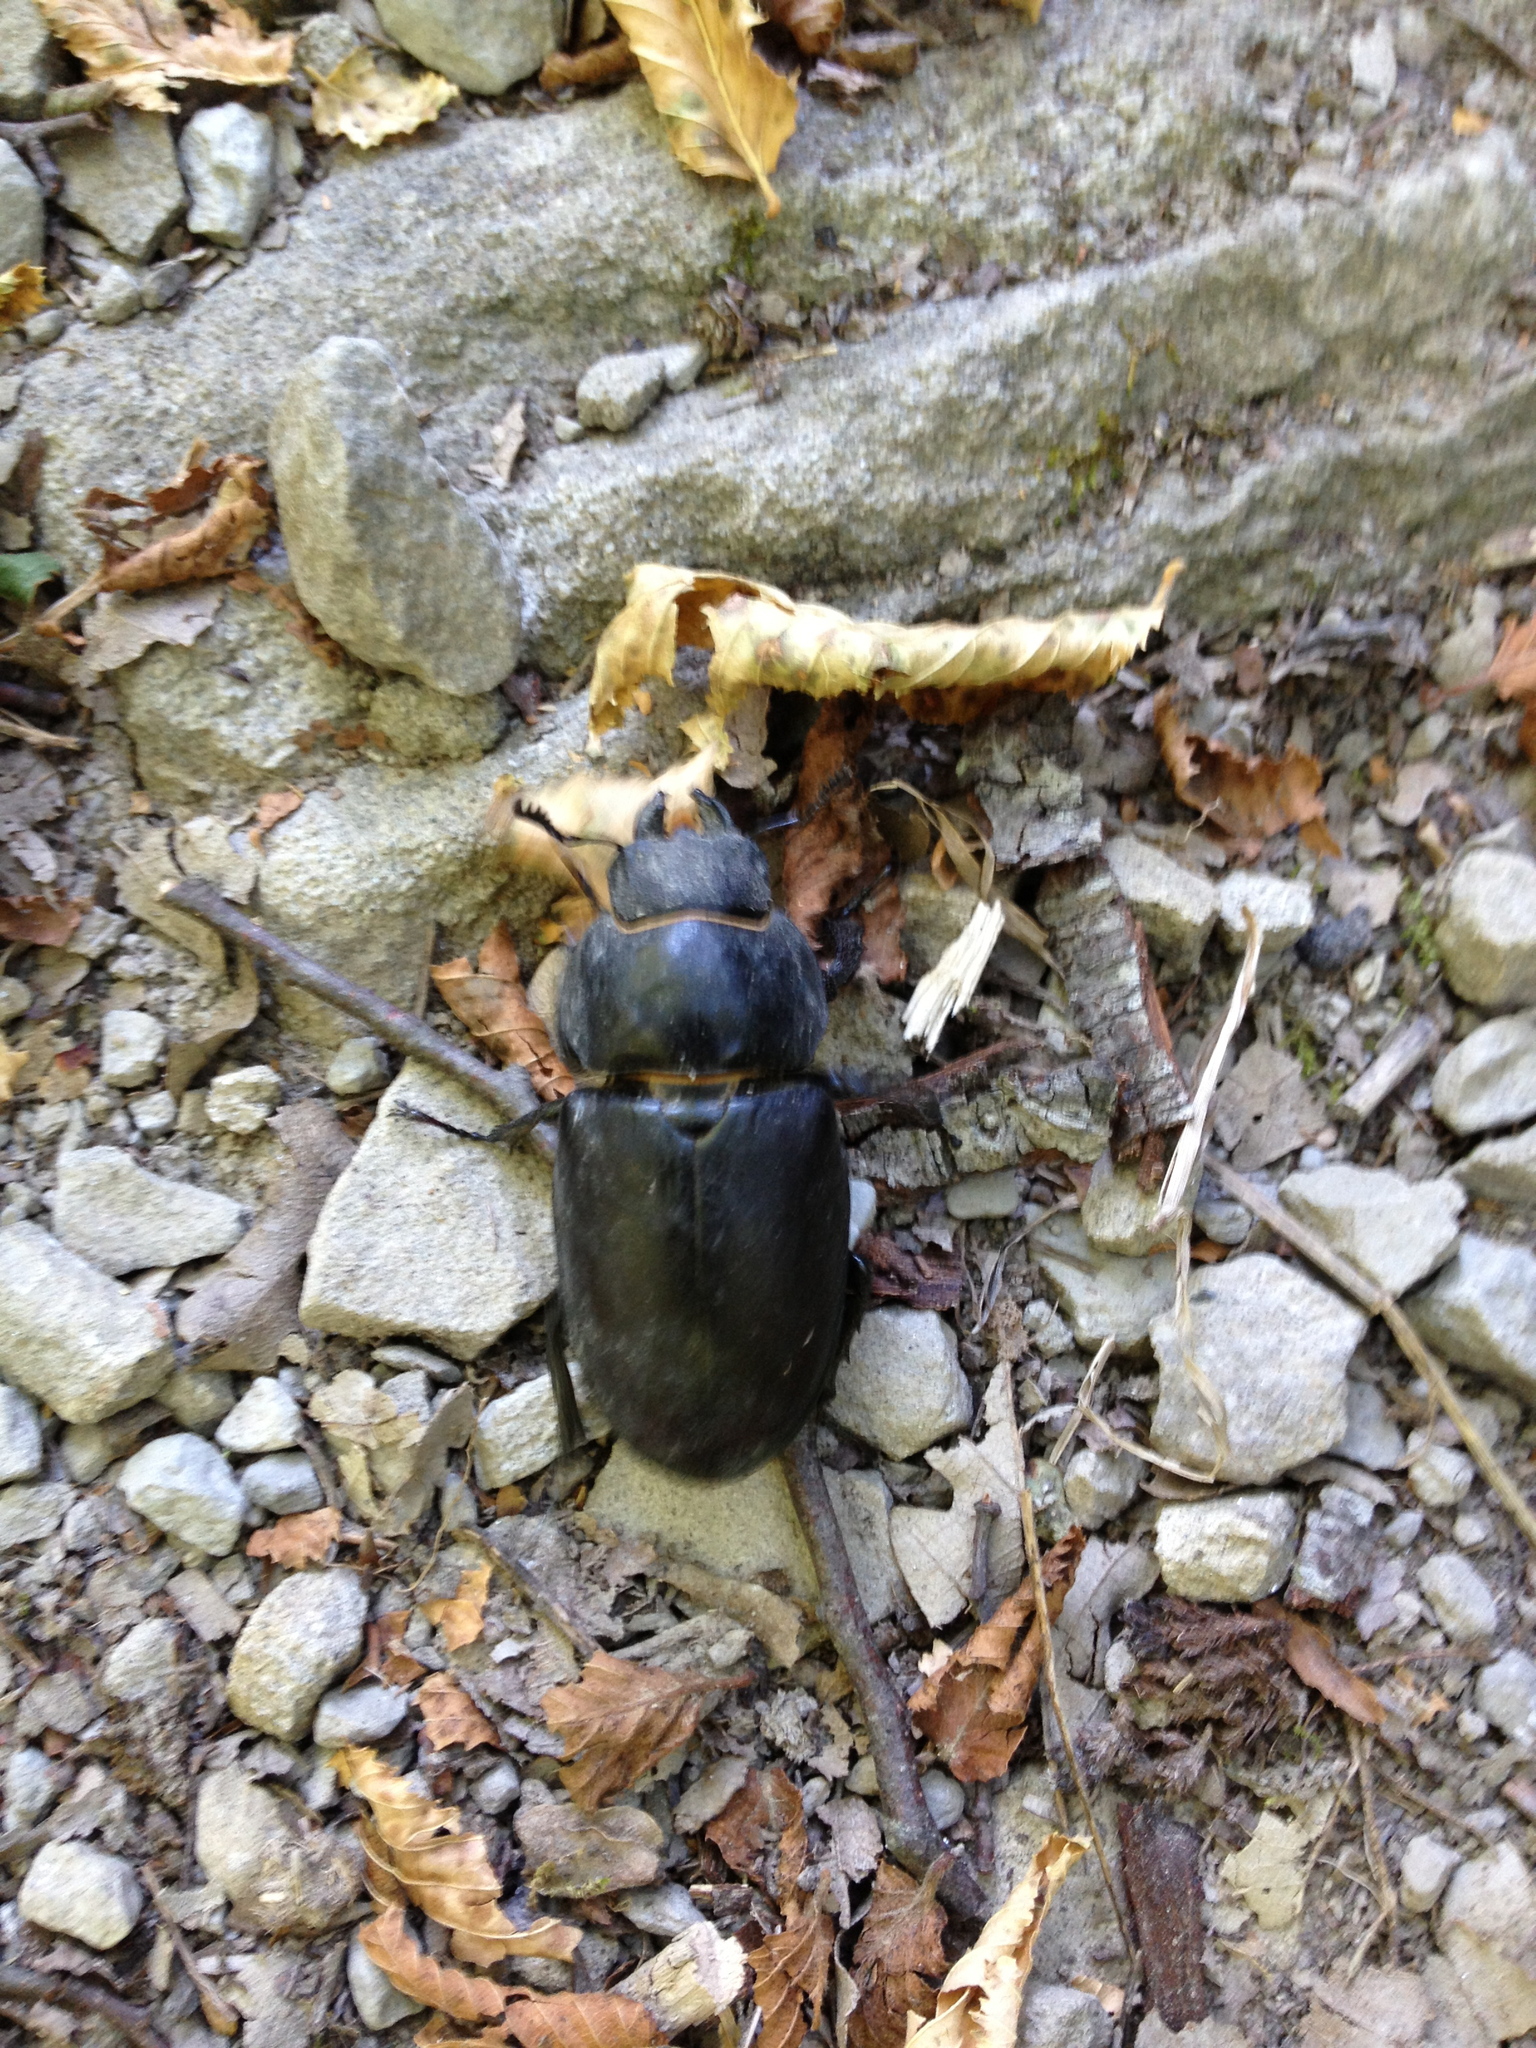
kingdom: Animalia
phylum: Arthropoda
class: Insecta
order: Coleoptera
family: Lucanidae
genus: Lucanus
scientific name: Lucanus cervus
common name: Stag beetle
